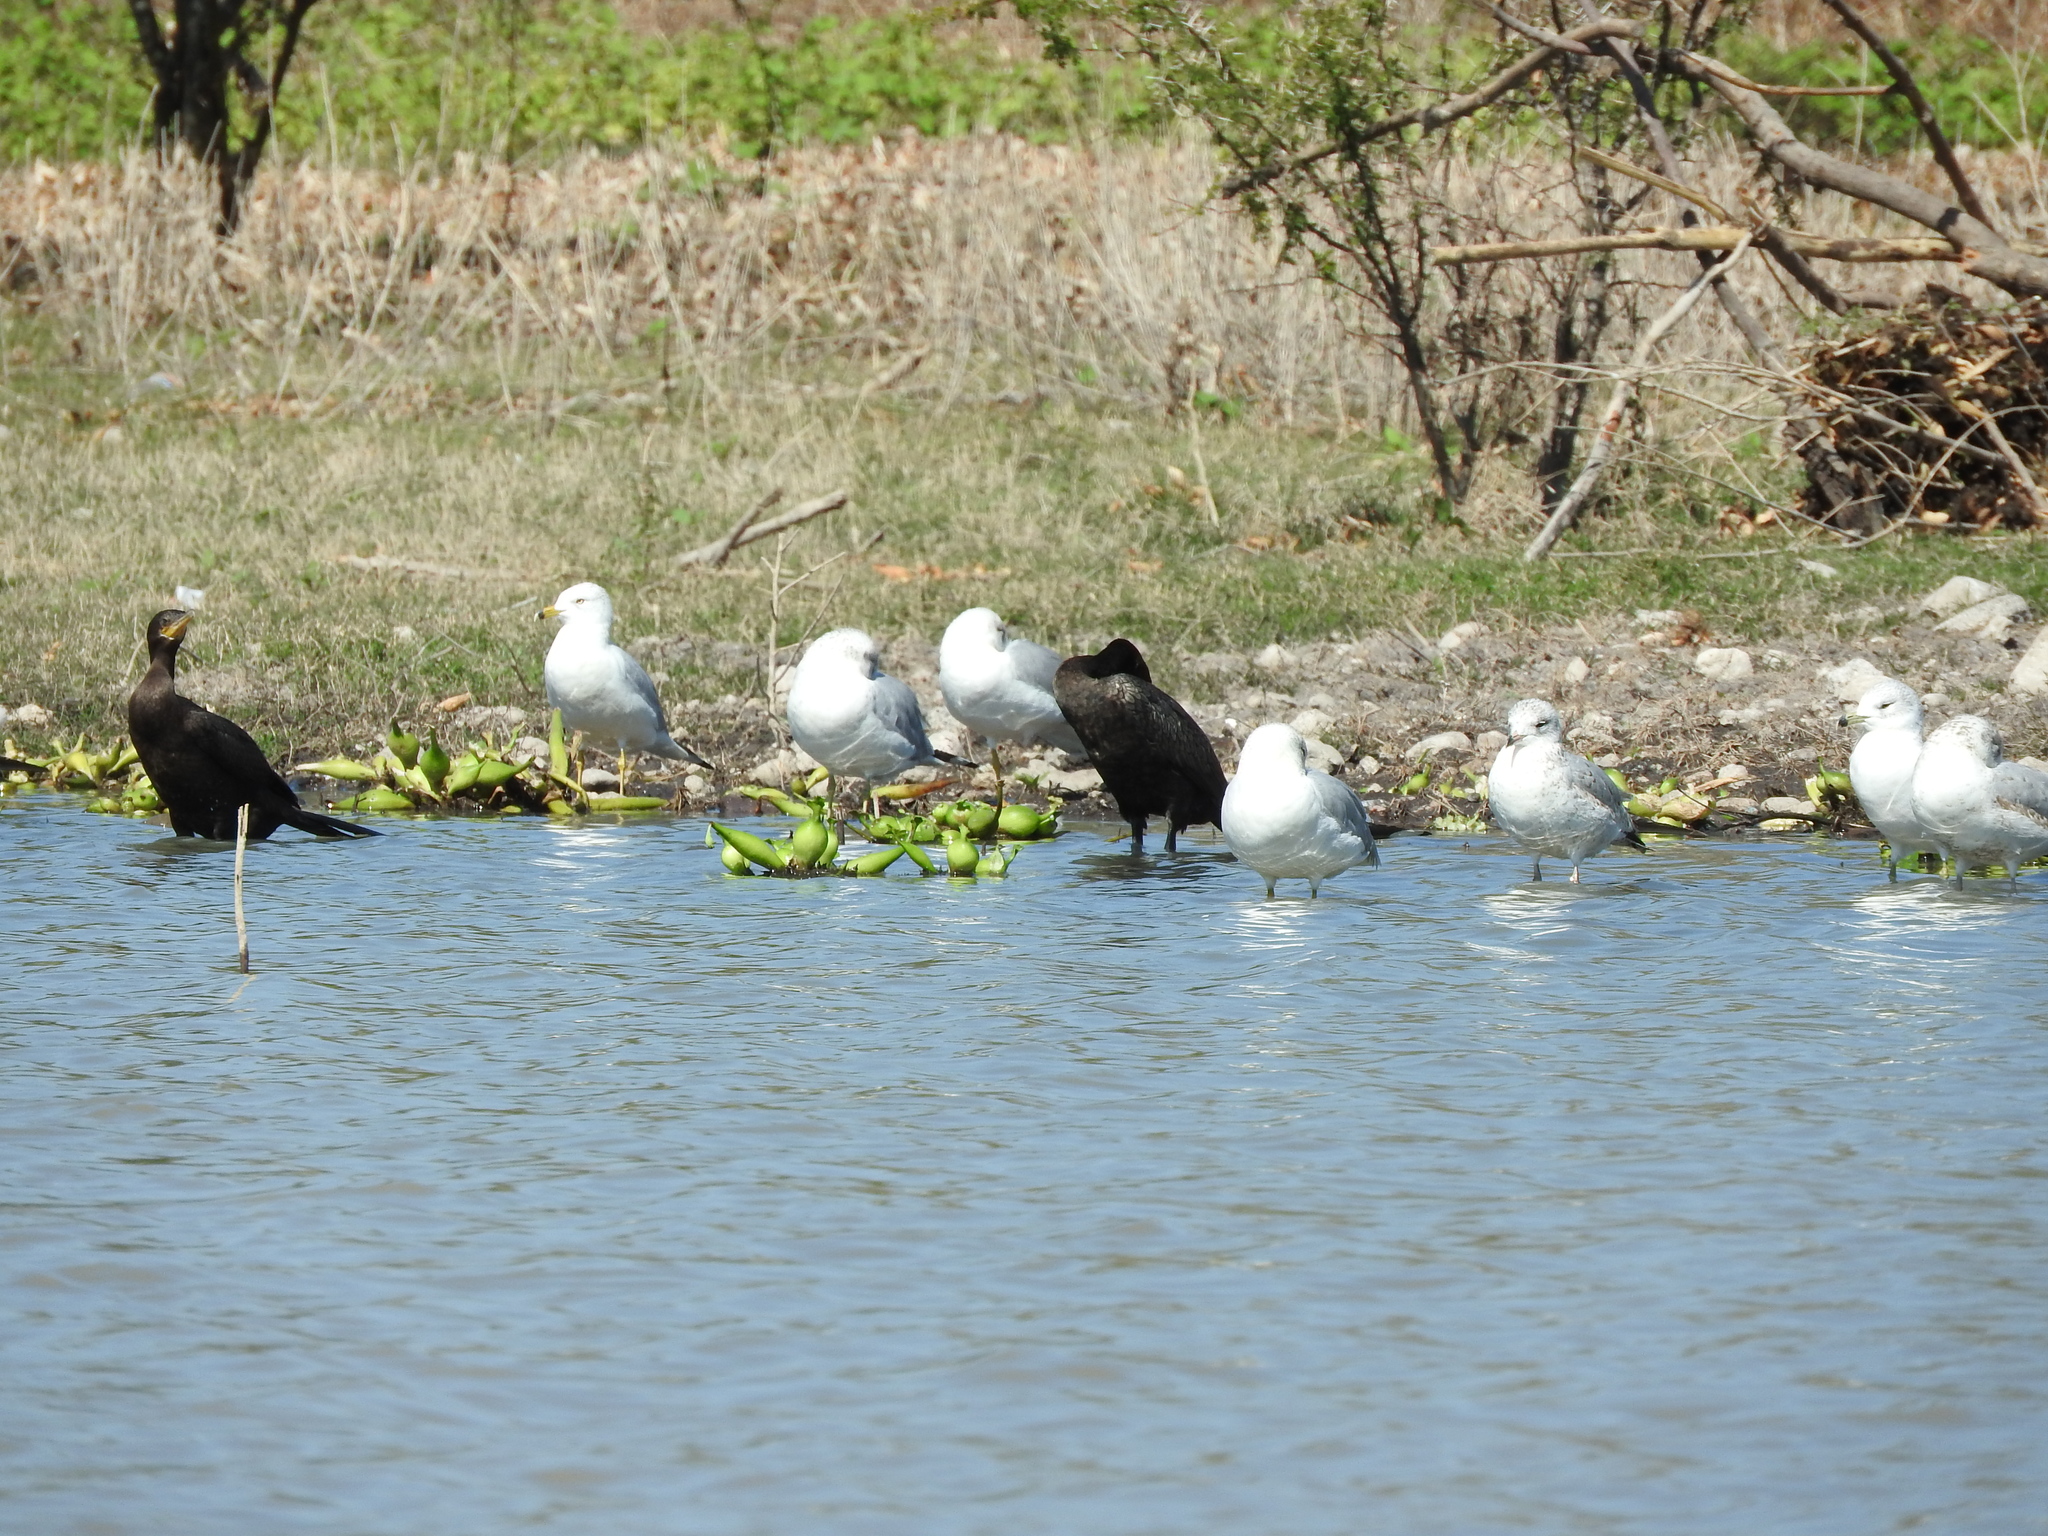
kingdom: Animalia
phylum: Chordata
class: Aves
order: Suliformes
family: Phalacrocoracidae
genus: Phalacrocorax
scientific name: Phalacrocorax brasilianus
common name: Neotropic cormorant
